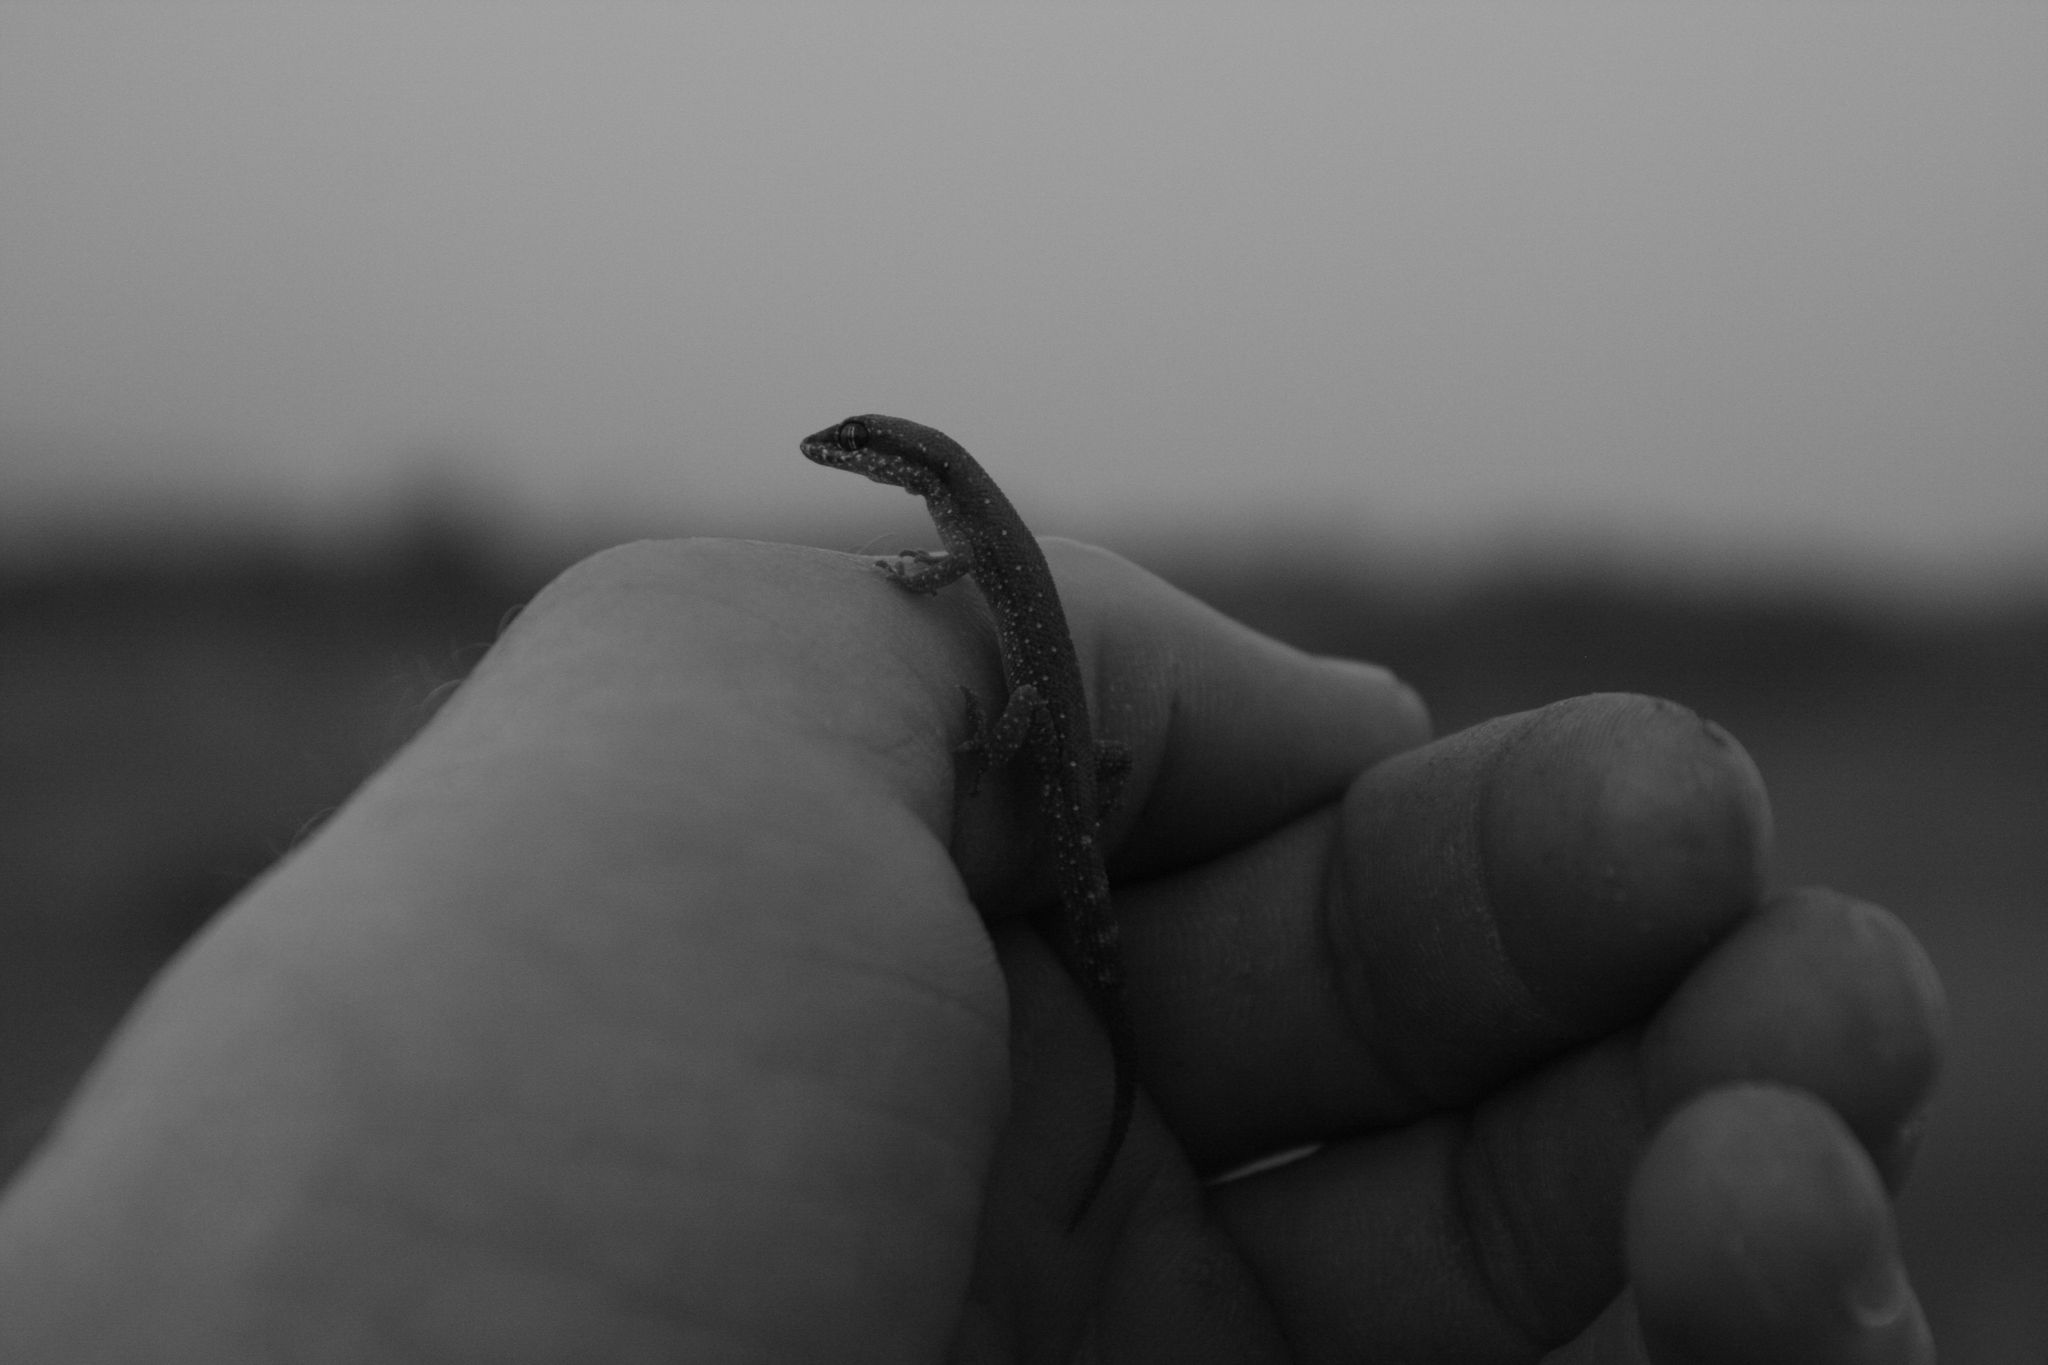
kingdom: Animalia
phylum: Chordata
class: Squamata
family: Gekkonidae
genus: Tropiocolotes
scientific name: Tropiocolotes tripolitanus
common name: Northern sand gecko
